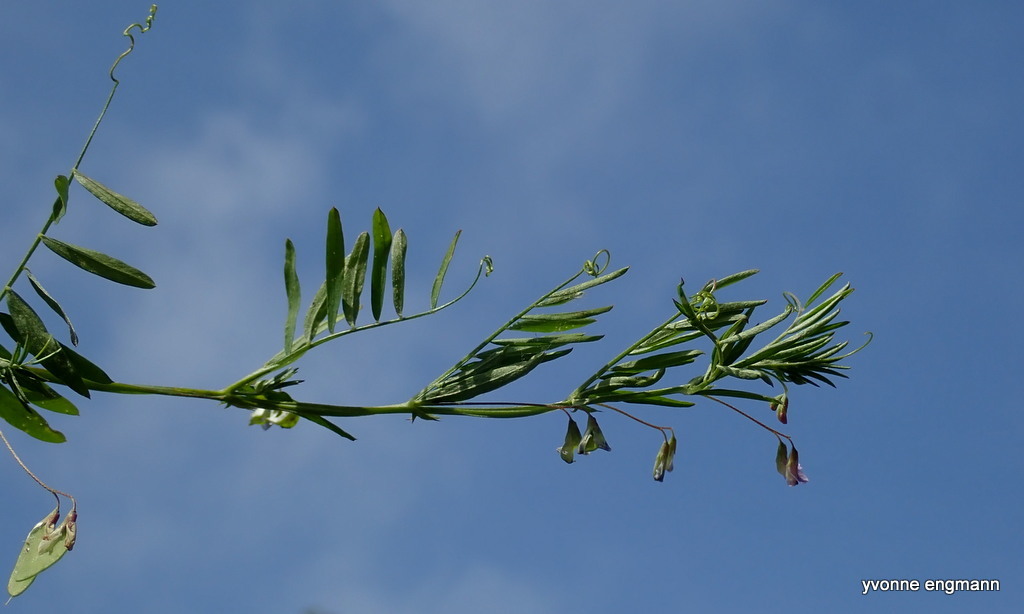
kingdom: Plantae
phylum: Tracheophyta
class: Magnoliopsida
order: Fabales
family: Fabaceae
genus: Vicia
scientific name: Vicia tetrasperma
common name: Smooth tare
